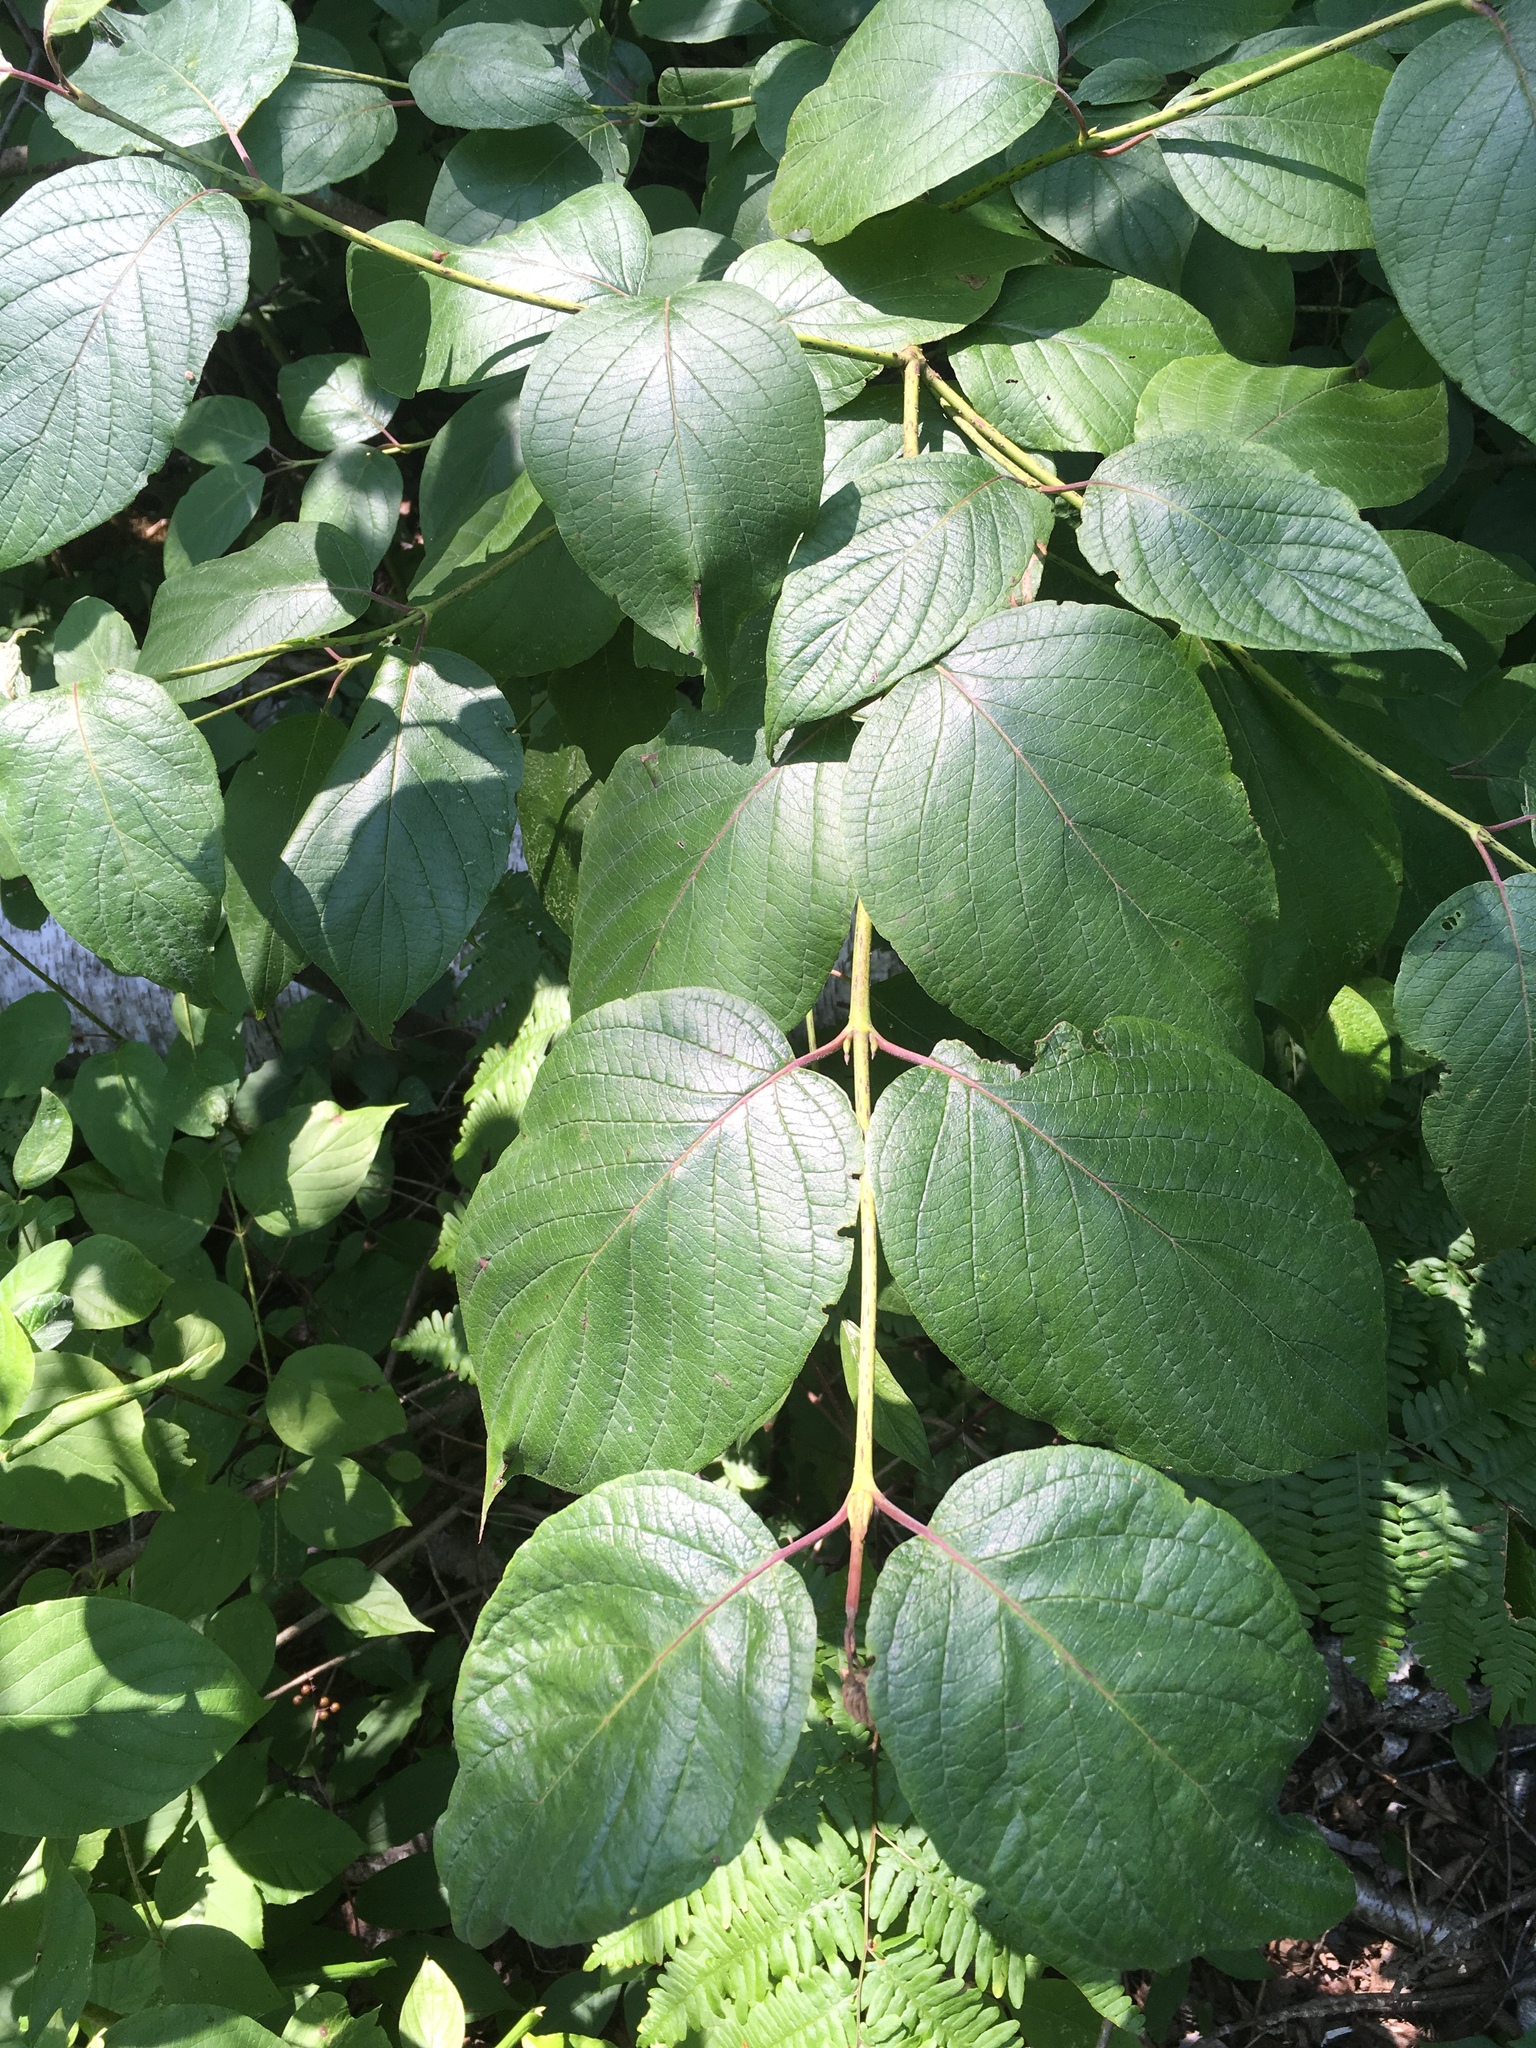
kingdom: Plantae
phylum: Tracheophyta
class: Magnoliopsida
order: Cornales
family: Cornaceae
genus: Cornus
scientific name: Cornus rugosa
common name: Round-leaf dogwood
